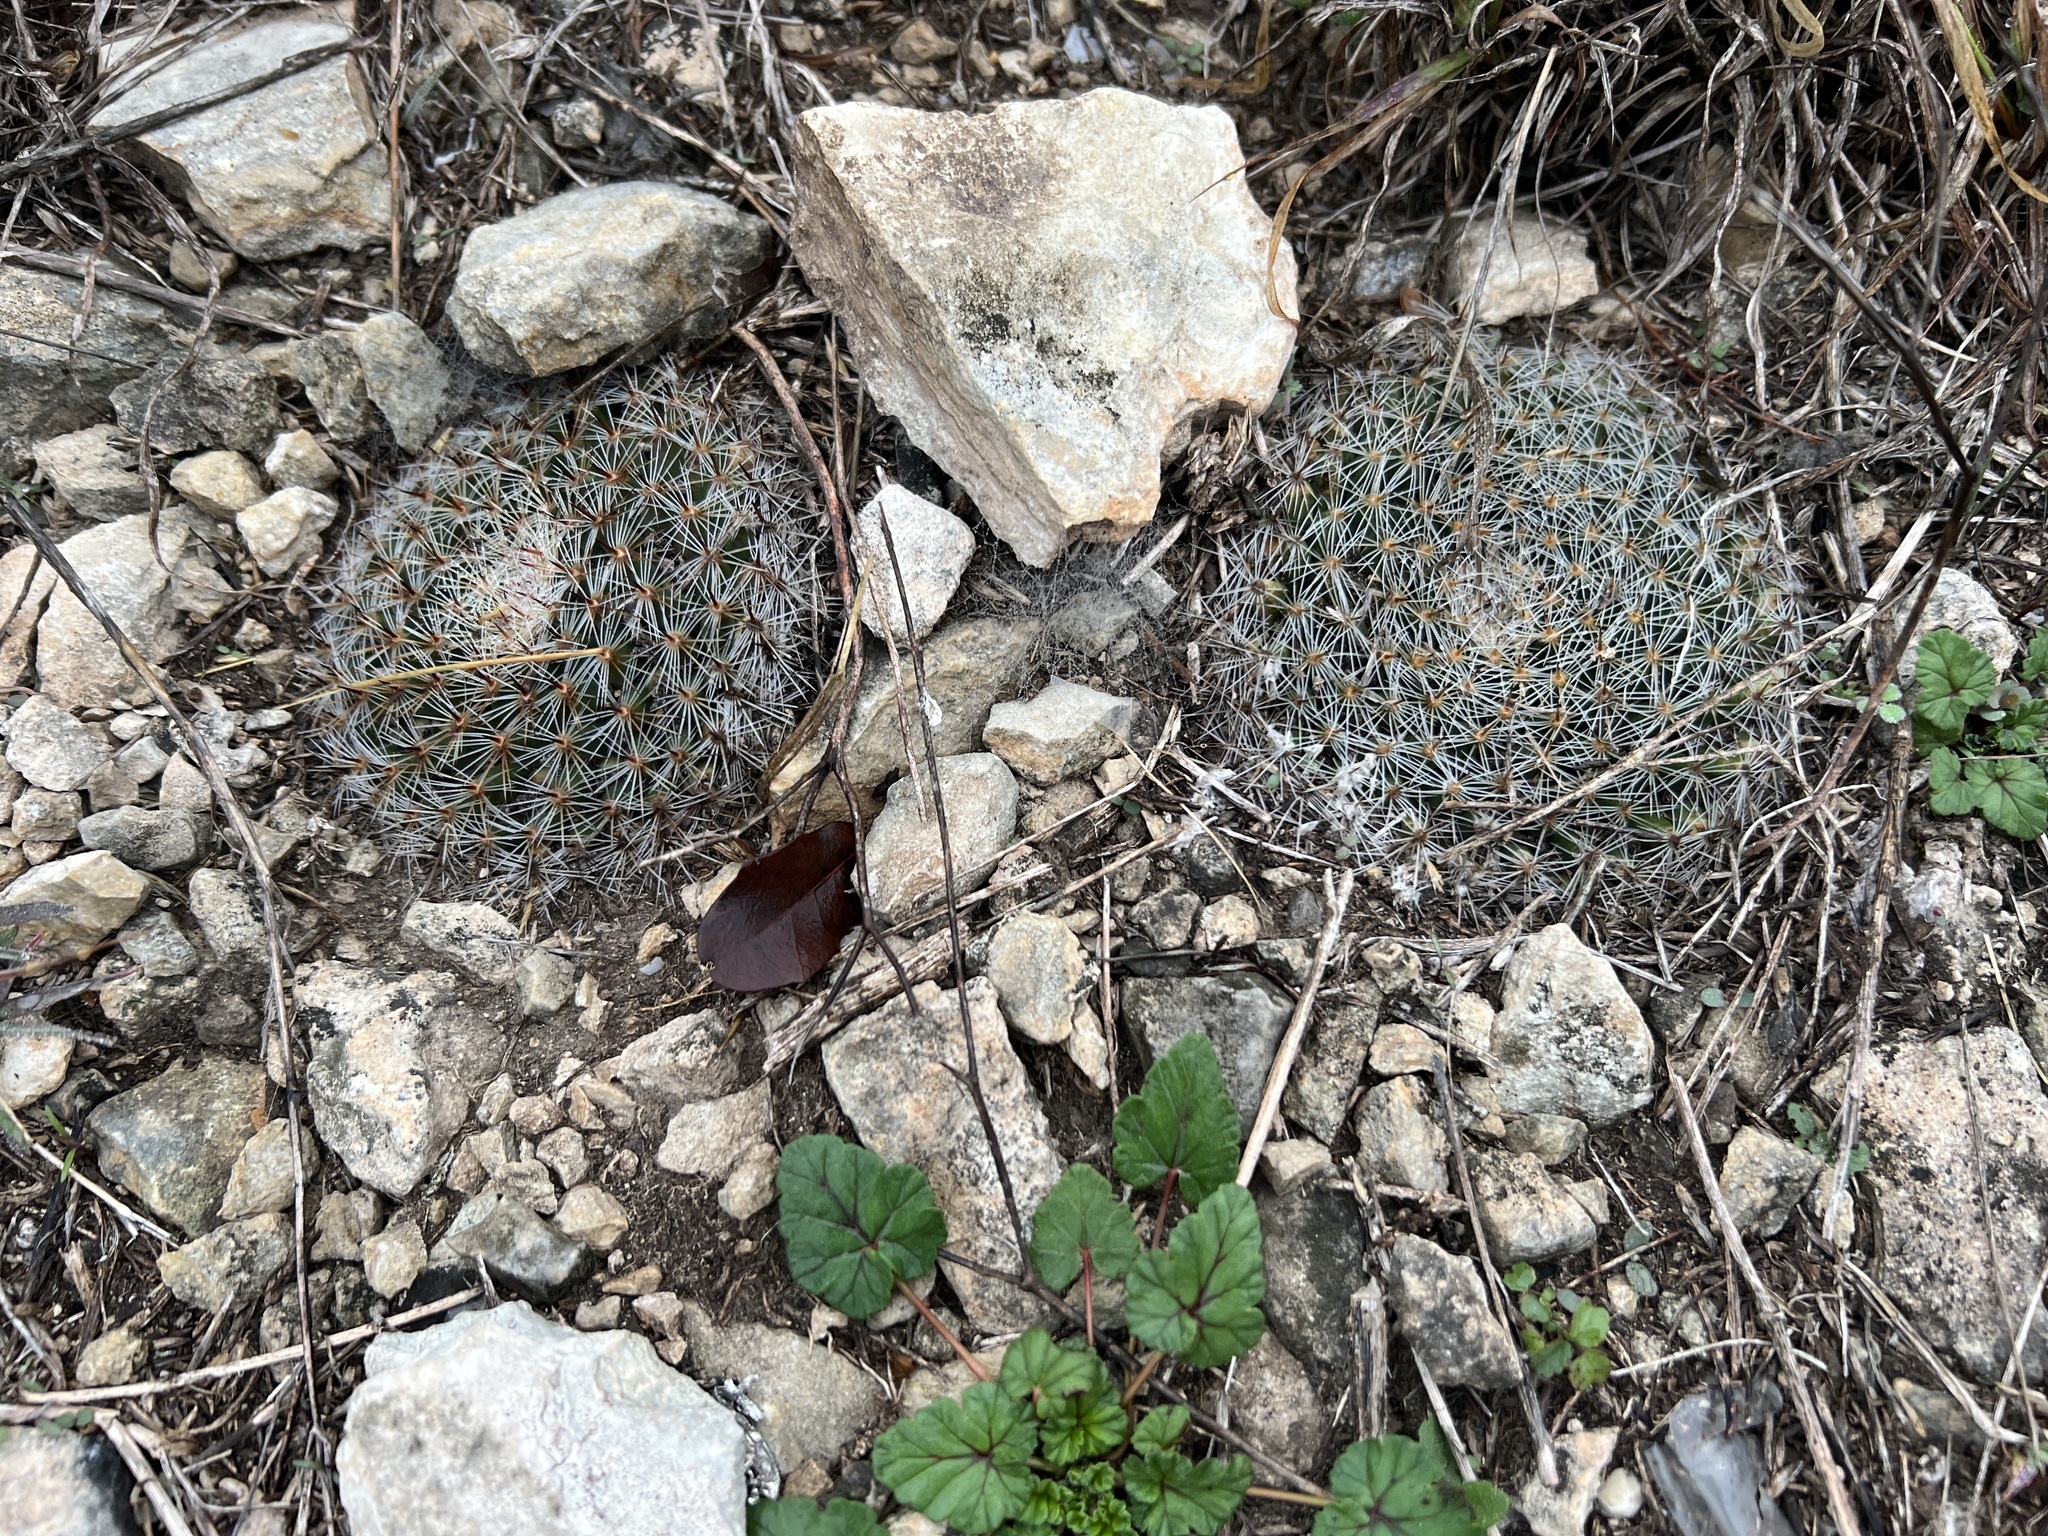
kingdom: Plantae
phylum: Tracheophyta
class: Magnoliopsida
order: Caryophyllales
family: Cactaceae
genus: Mammillaria
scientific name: Mammillaria heyderi
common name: Little nipple cactus
